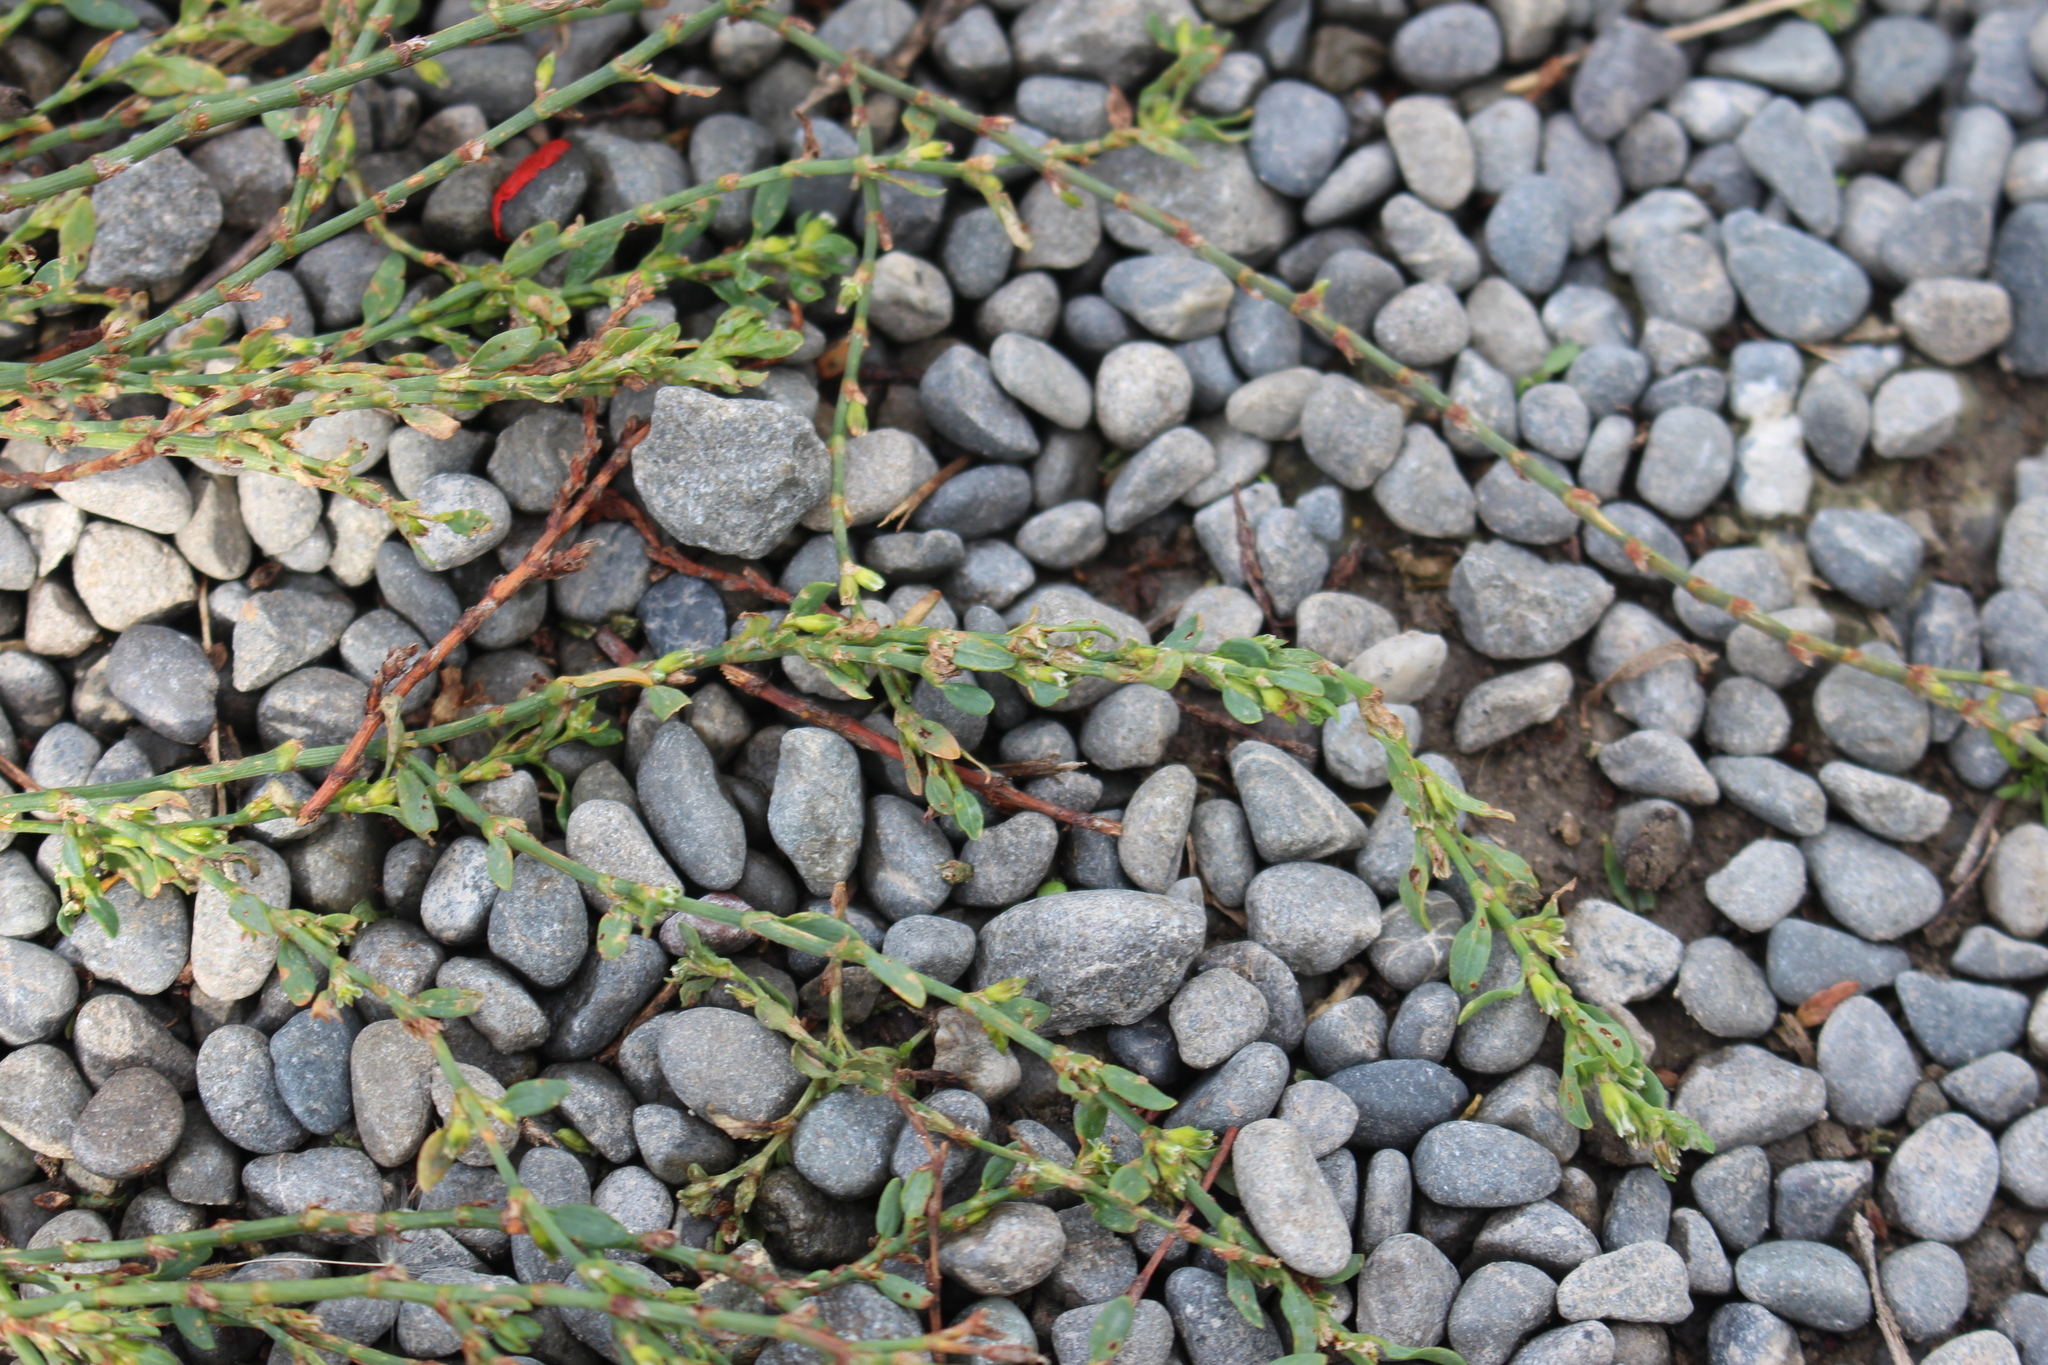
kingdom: Plantae
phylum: Tracheophyta
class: Magnoliopsida
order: Caryophyllales
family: Polygonaceae
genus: Polygonum
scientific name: Polygonum aviculare
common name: Prostrate knotweed
